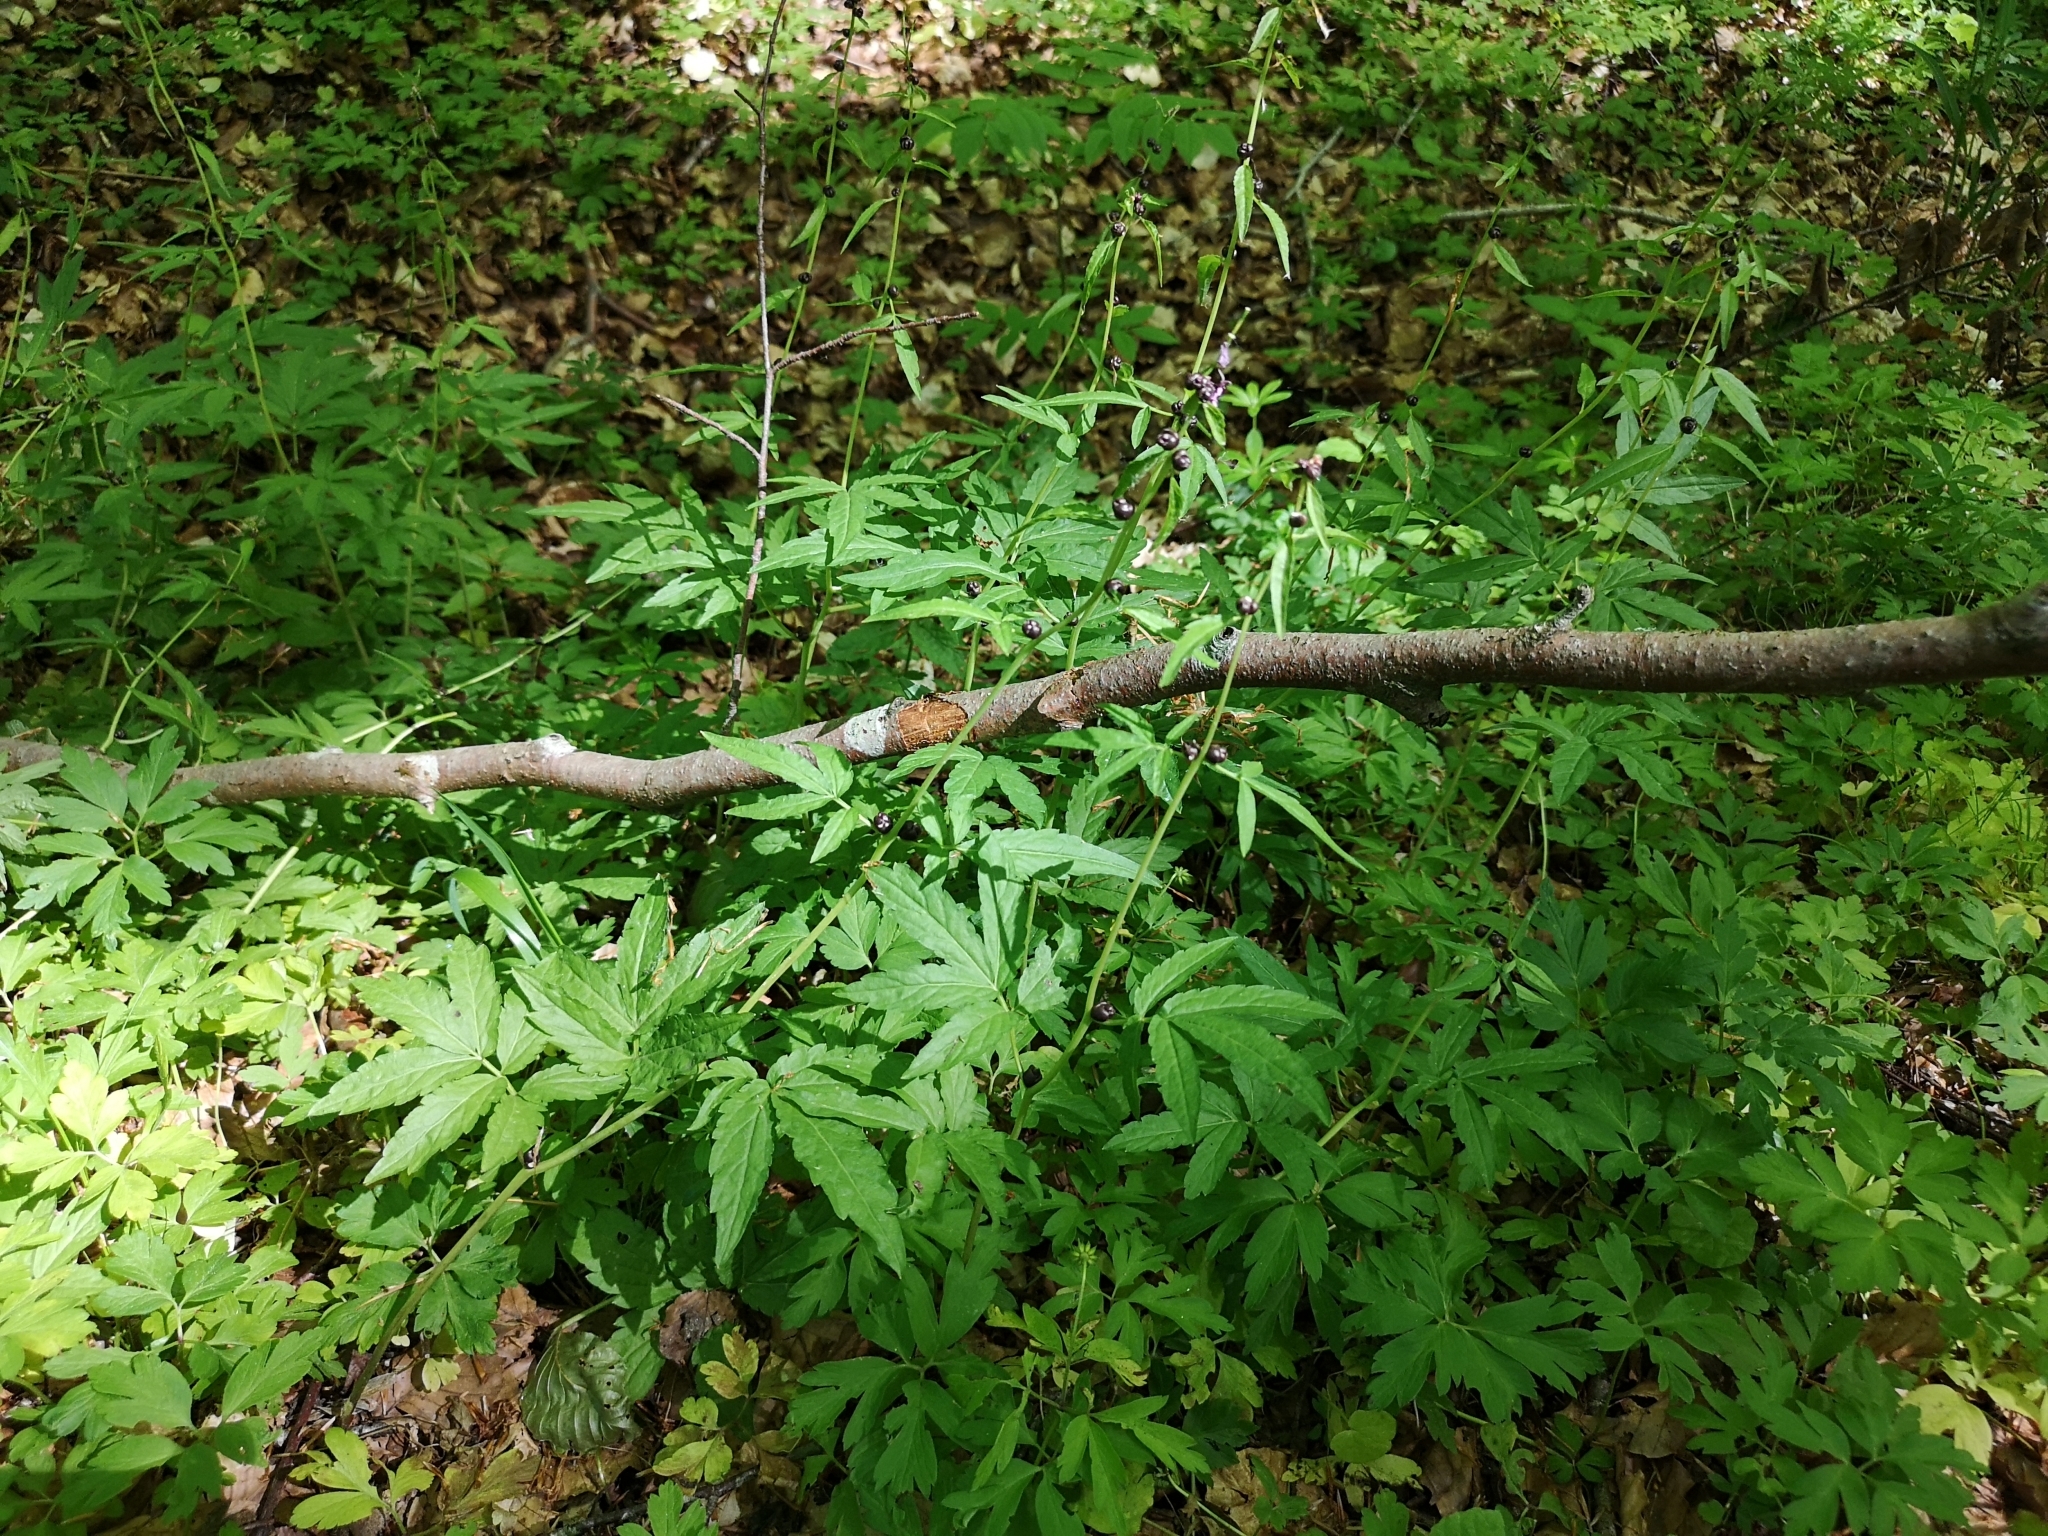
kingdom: Plantae
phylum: Tracheophyta
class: Magnoliopsida
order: Brassicales
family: Brassicaceae
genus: Cardamine
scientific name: Cardamine bulbifera
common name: Coralroot bittercress
